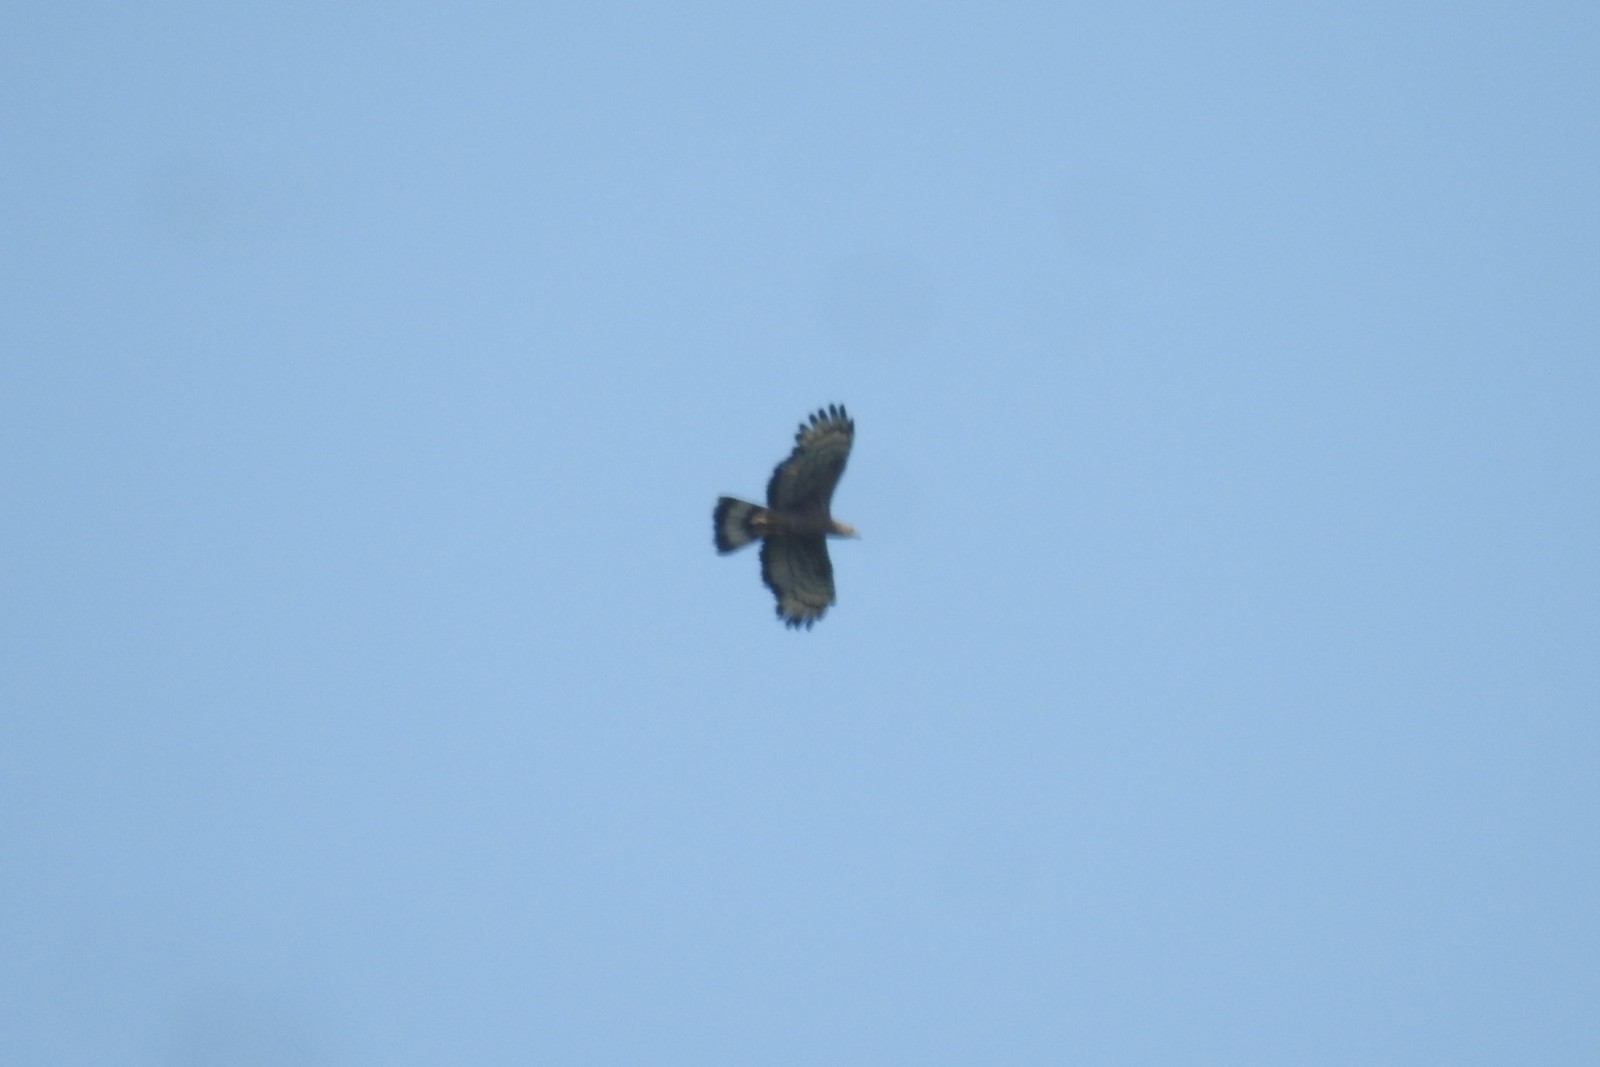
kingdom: Animalia
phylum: Chordata
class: Aves
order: Accipitriformes
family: Accipitridae
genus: Pernis
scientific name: Pernis ptilorhynchus
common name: Crested honey buzzard
